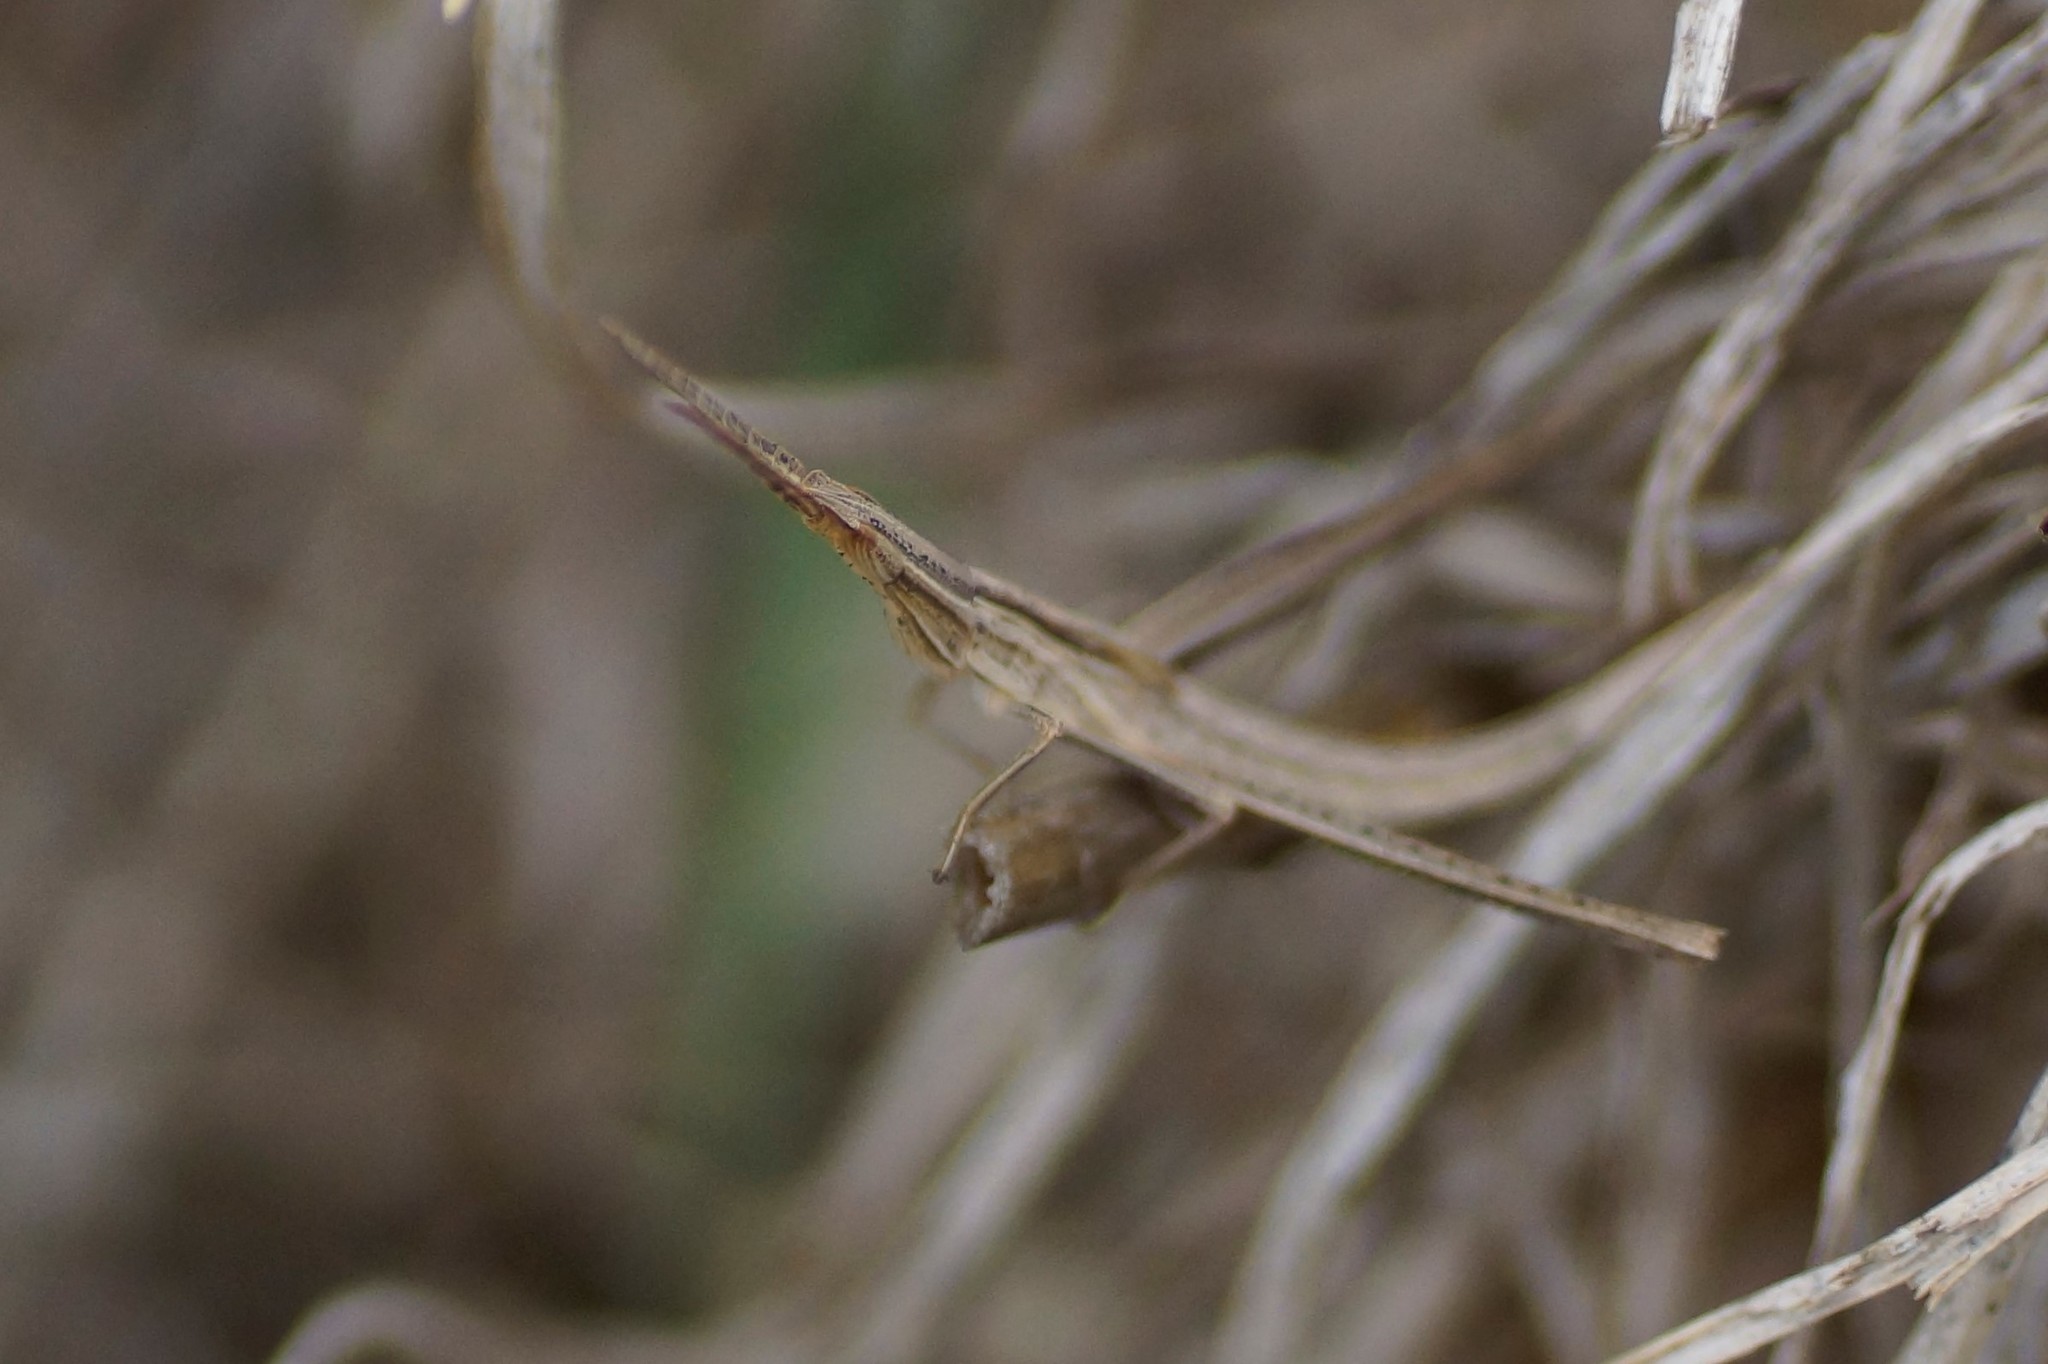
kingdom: Animalia
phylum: Arthropoda
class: Insecta
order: Orthoptera
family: Acrididae
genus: Acrida
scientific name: Acrida conica
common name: Giant green slantface
